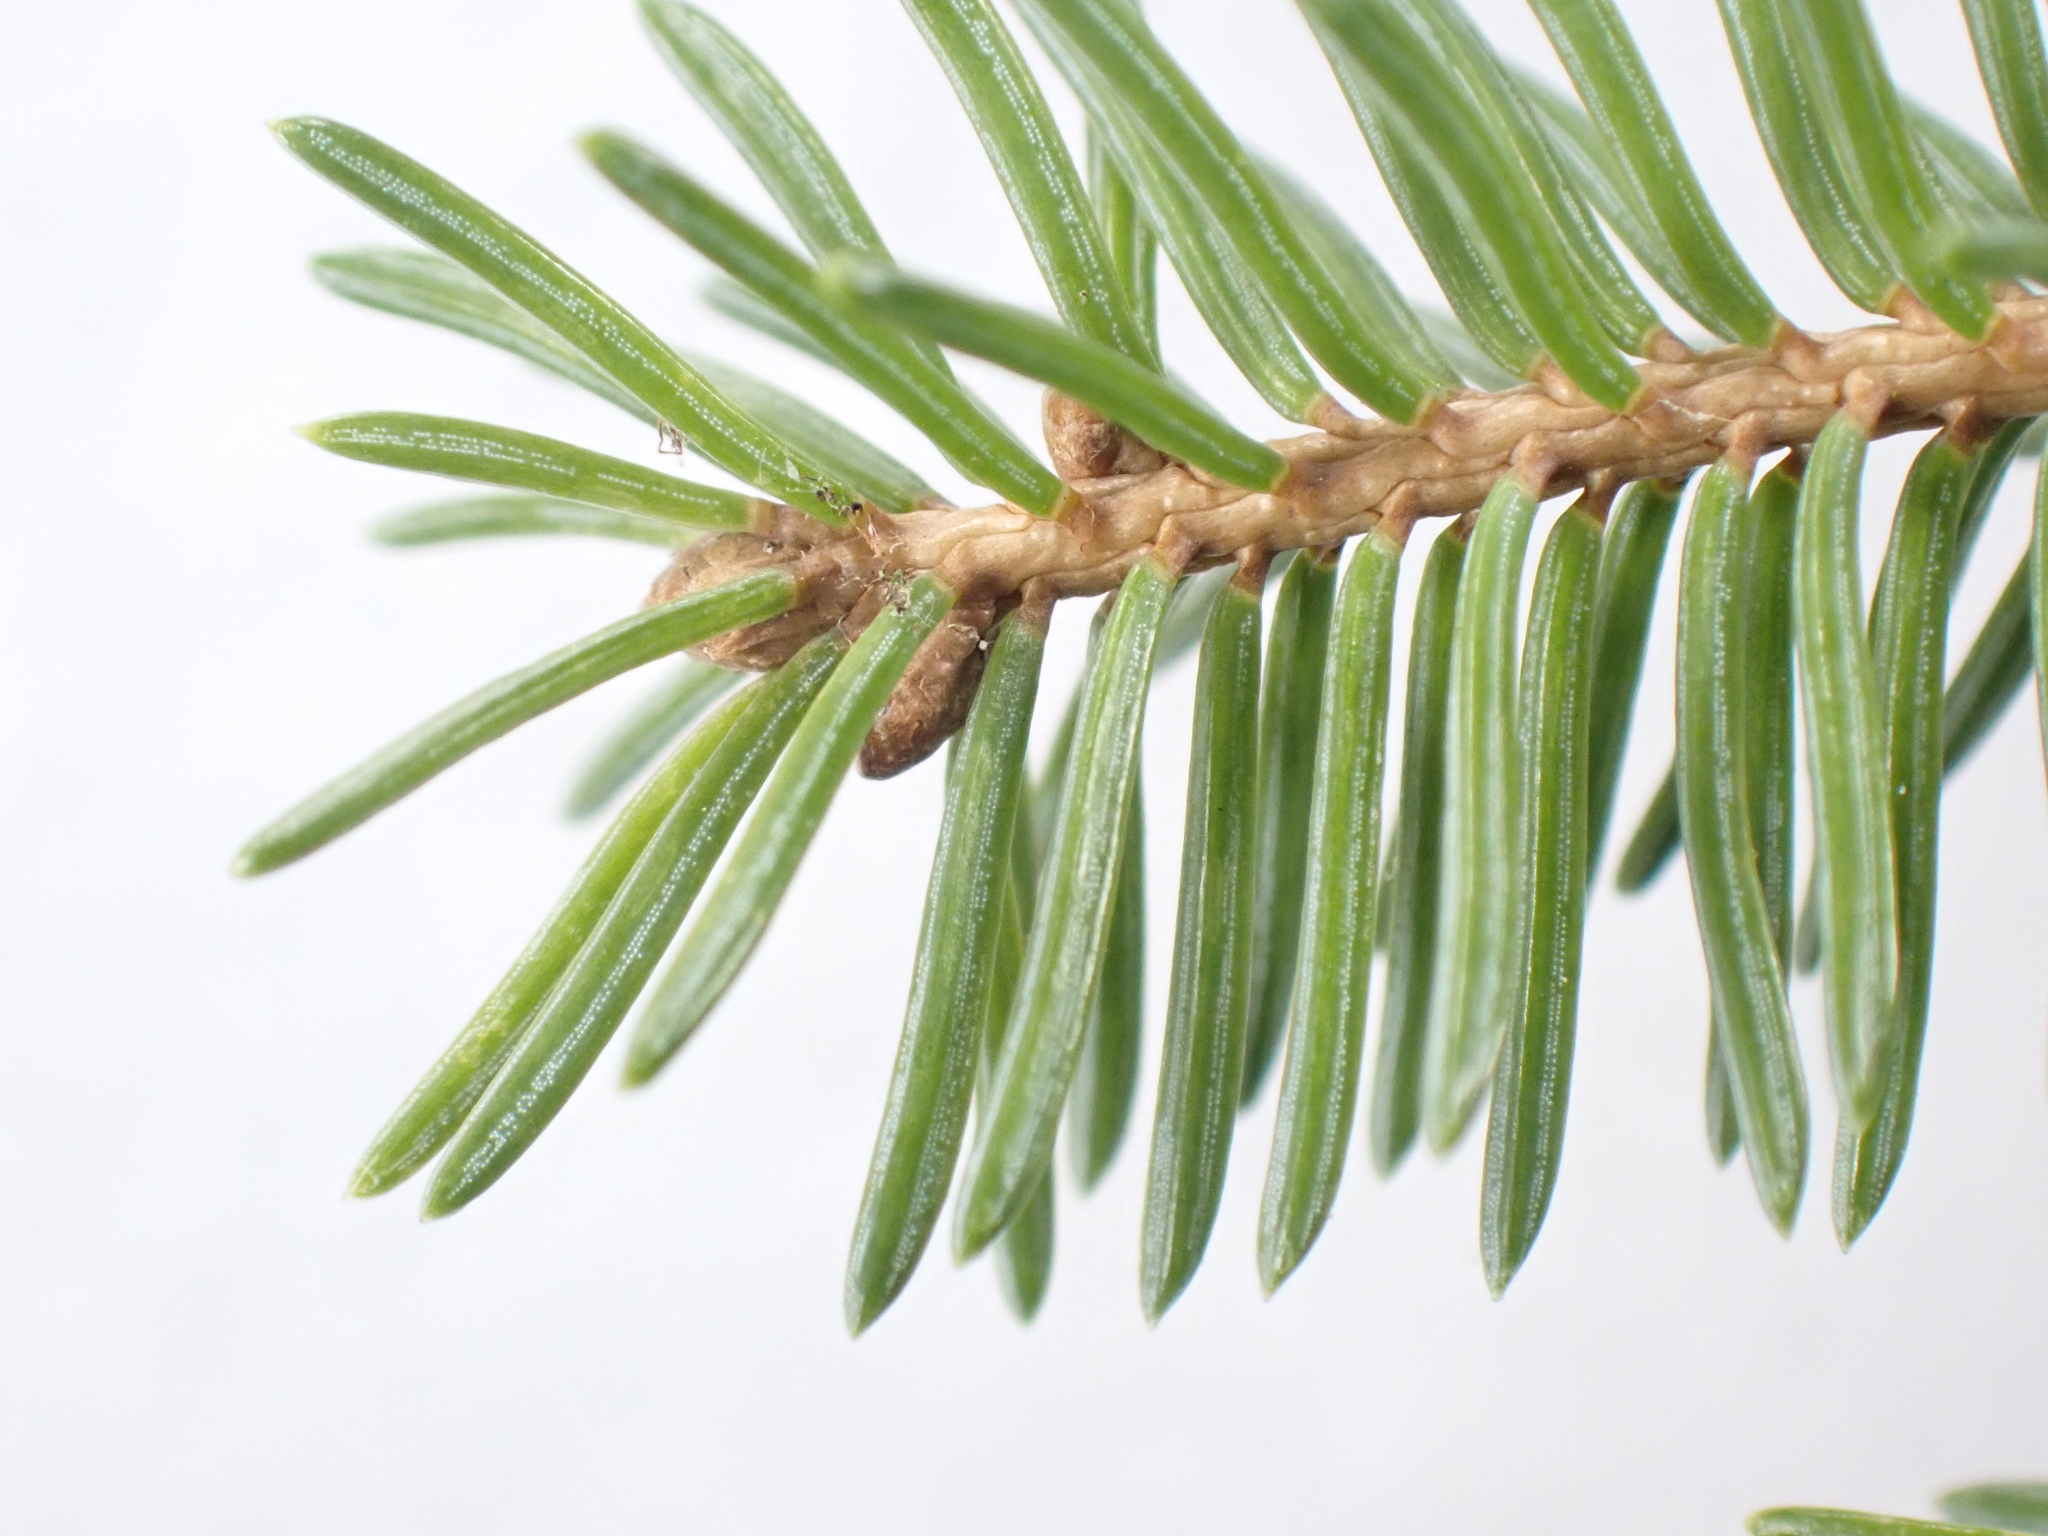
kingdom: Plantae
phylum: Tracheophyta
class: Pinopsida
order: Pinales
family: Pinaceae
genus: Picea
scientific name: Picea glauca
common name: White spruce
